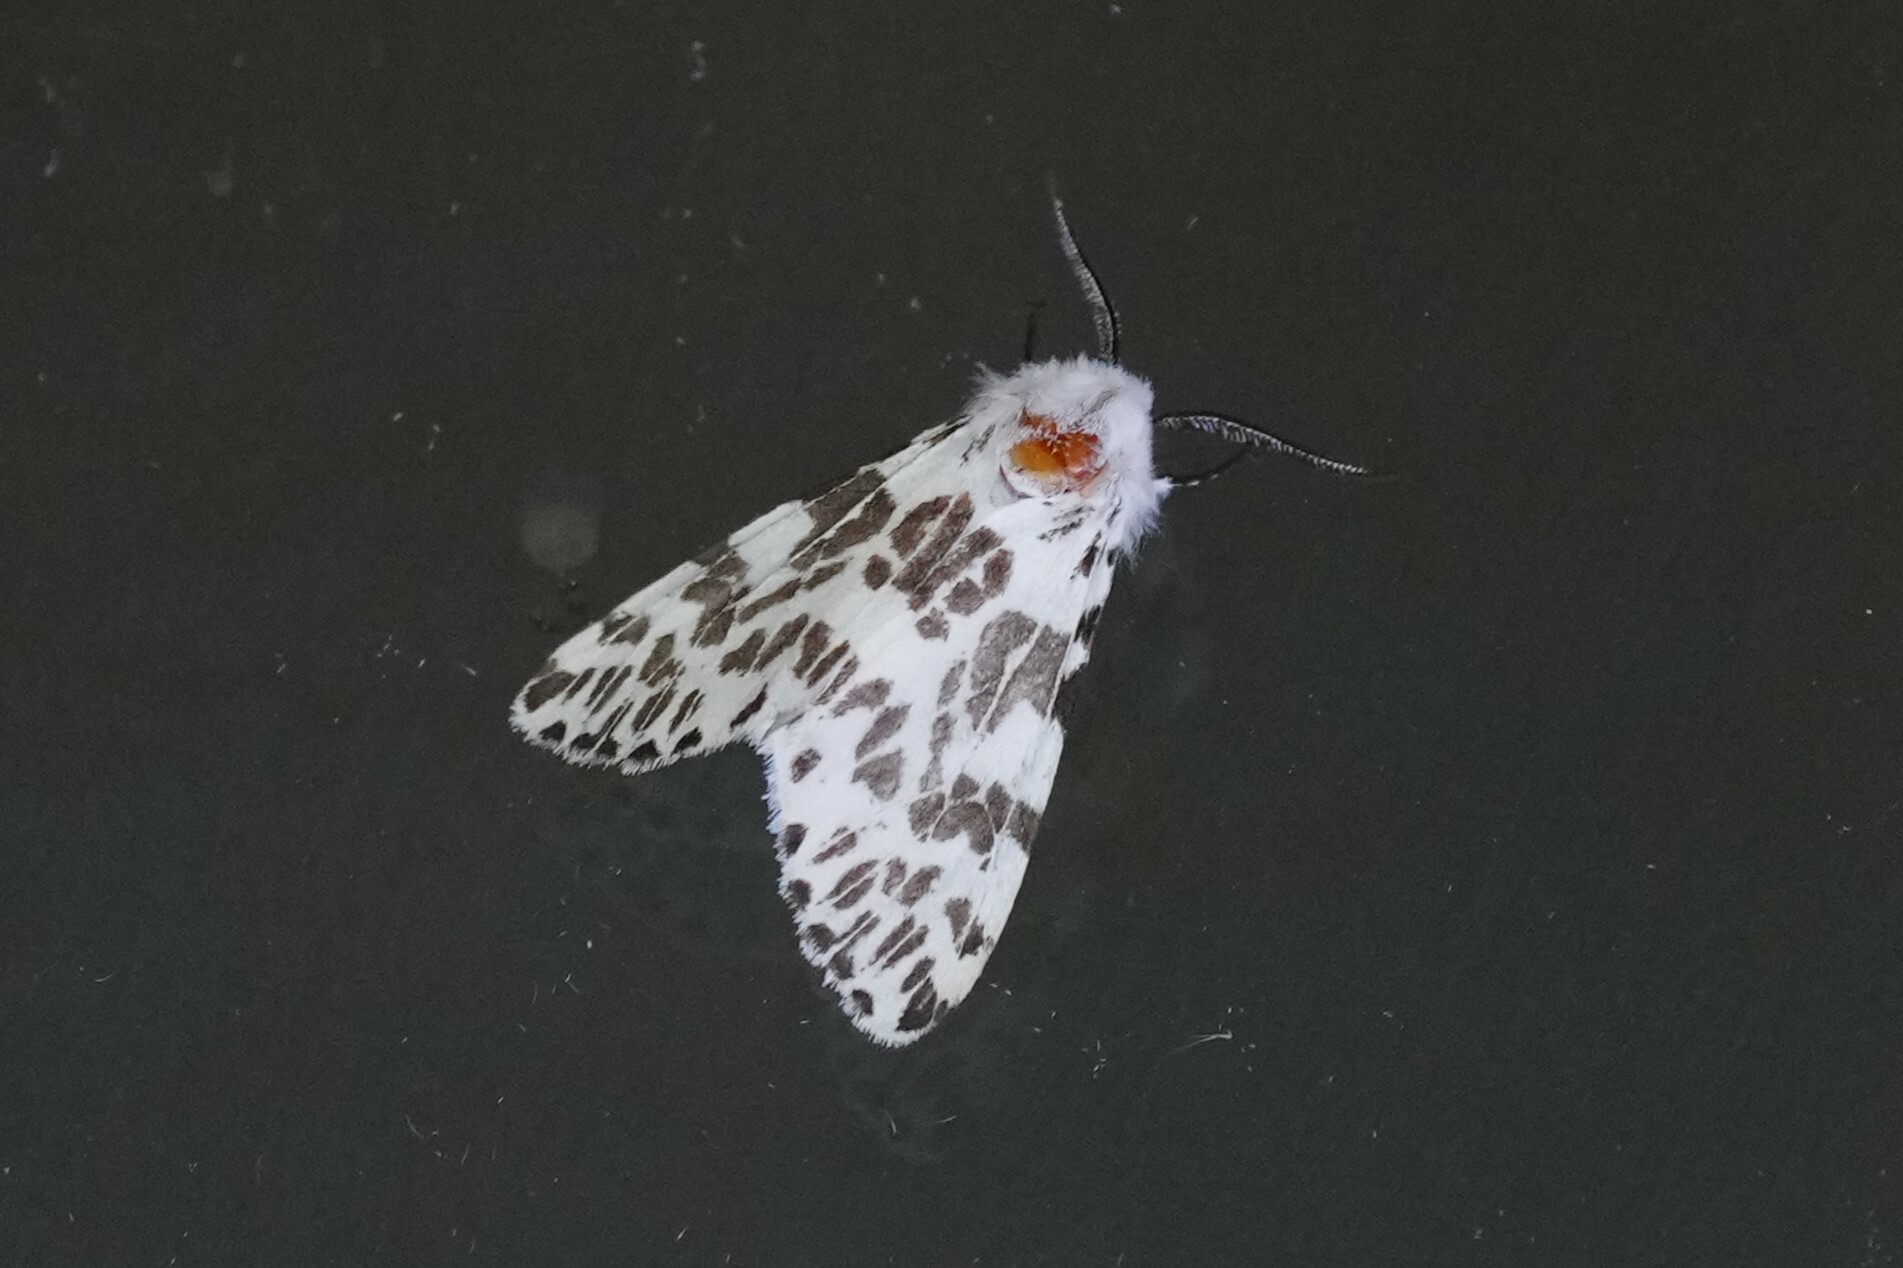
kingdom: Animalia
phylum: Arthropoda
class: Insecta
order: Lepidoptera
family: Erebidae
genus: Hyphantria
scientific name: Hyphantria cunea
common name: American white moth
